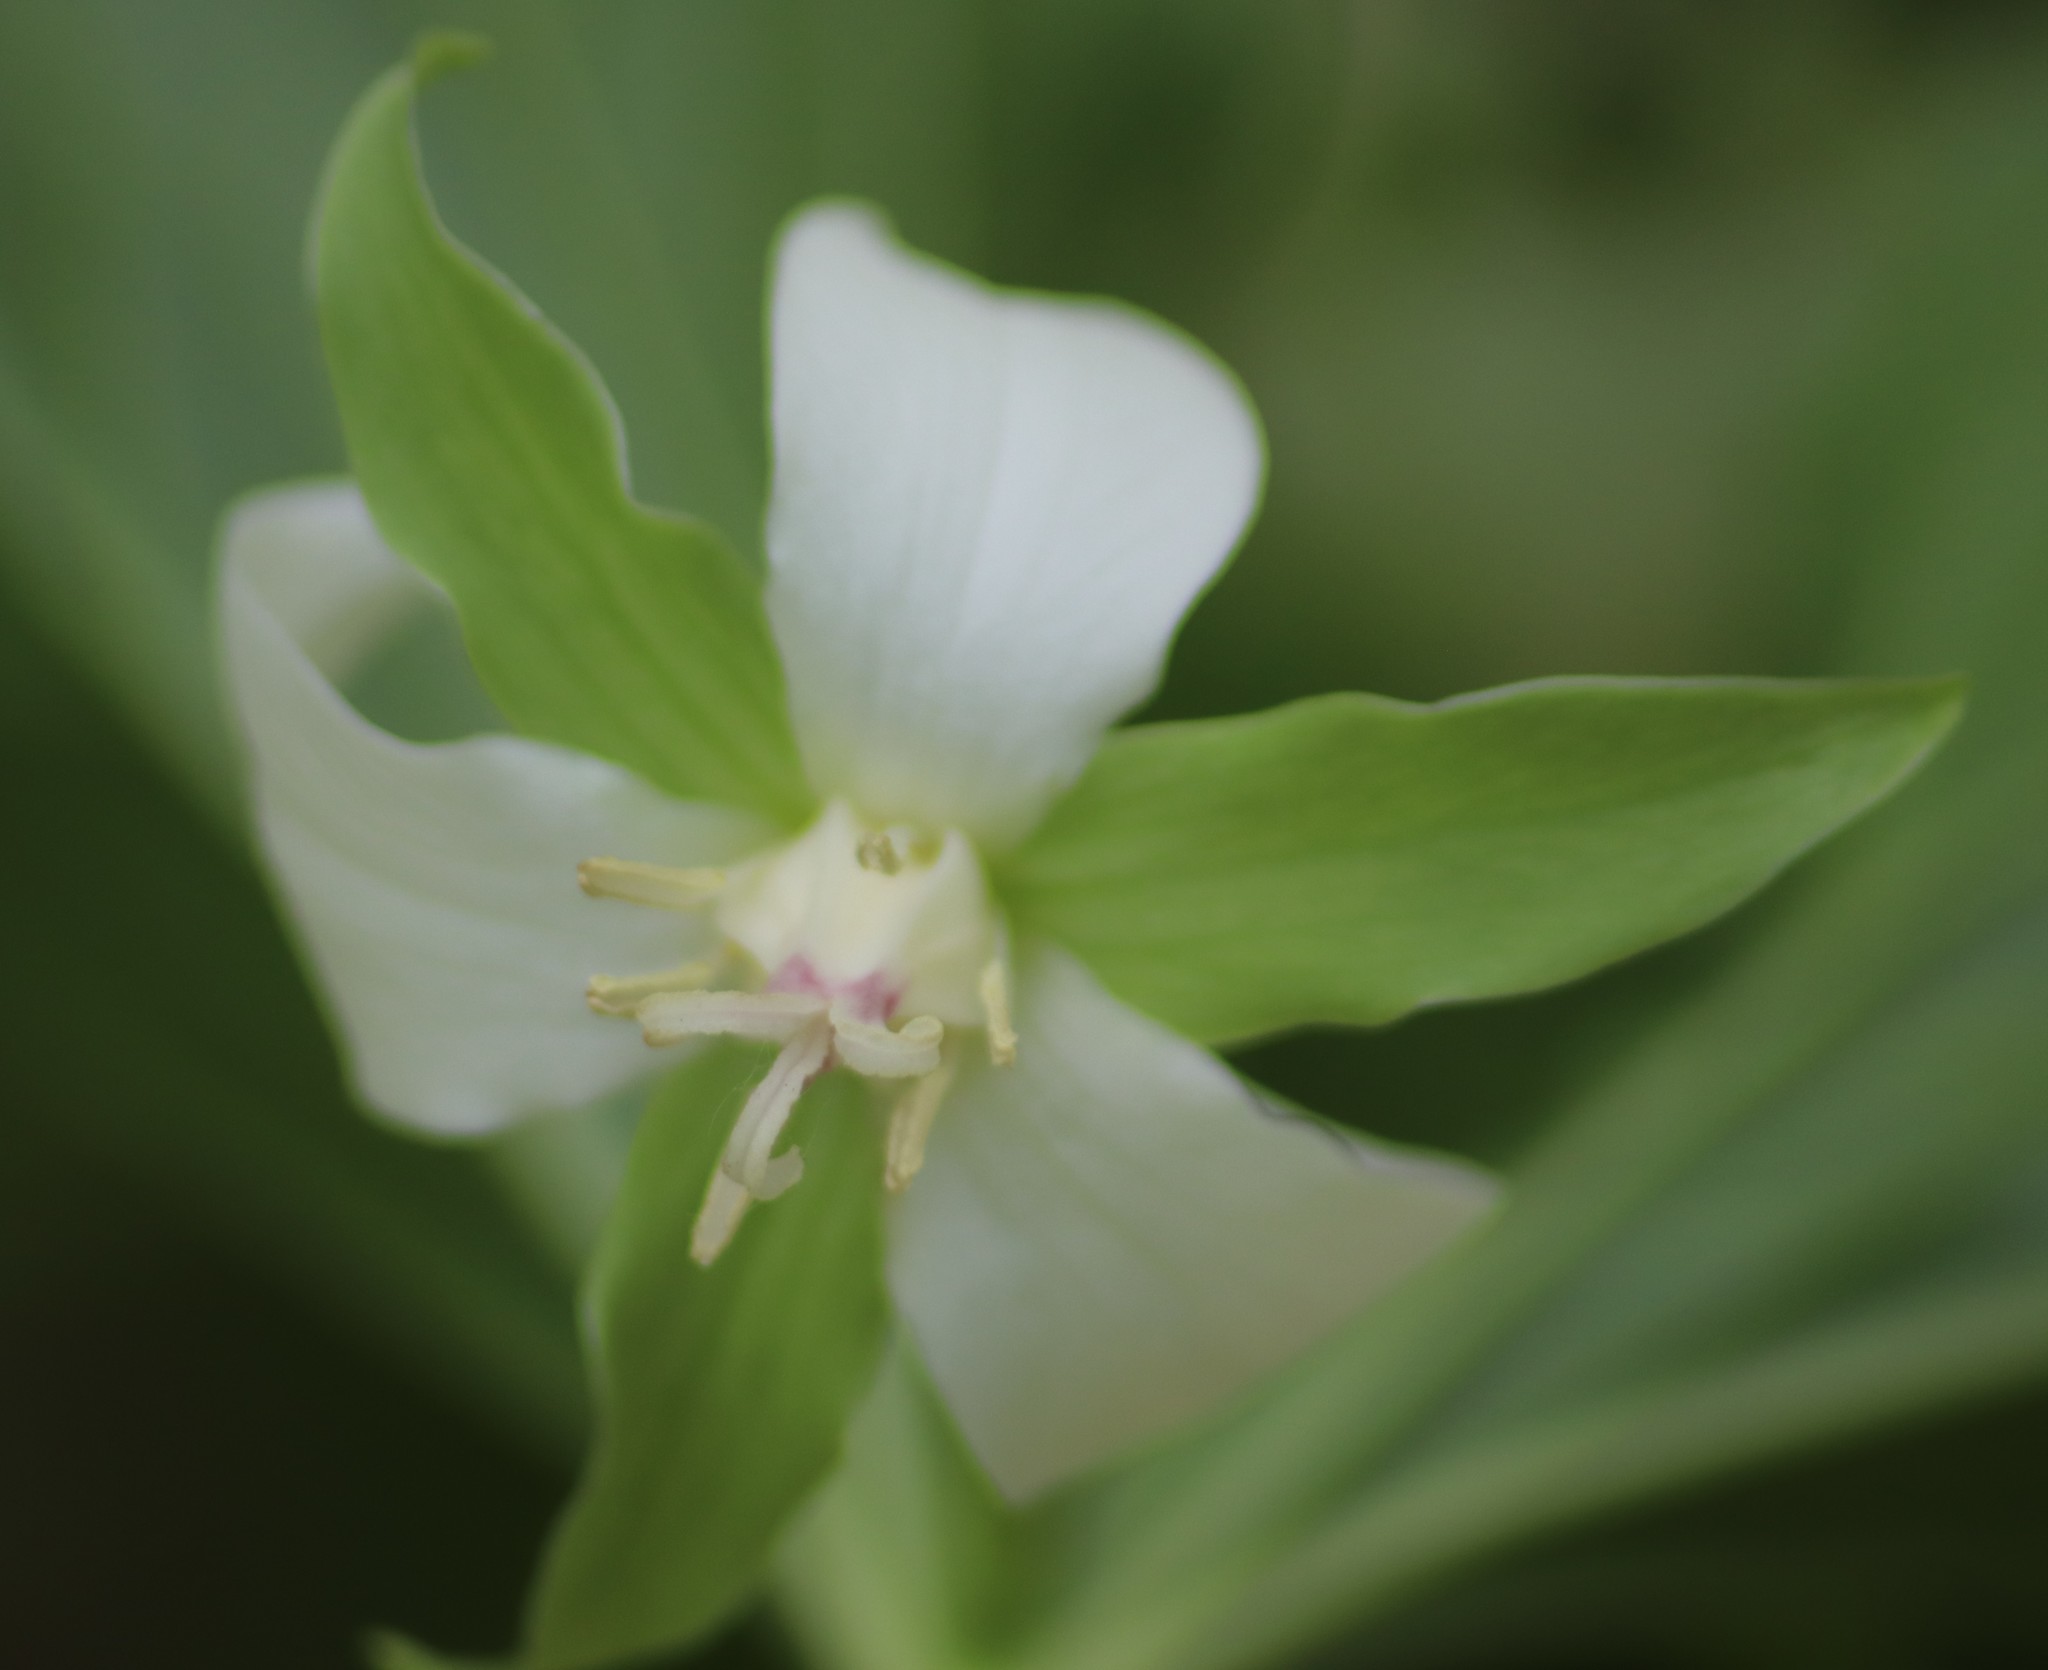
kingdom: Plantae
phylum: Tracheophyta
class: Liliopsida
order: Liliales
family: Melanthiaceae
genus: Trillium
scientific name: Trillium cernuum
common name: Nodding trillium
